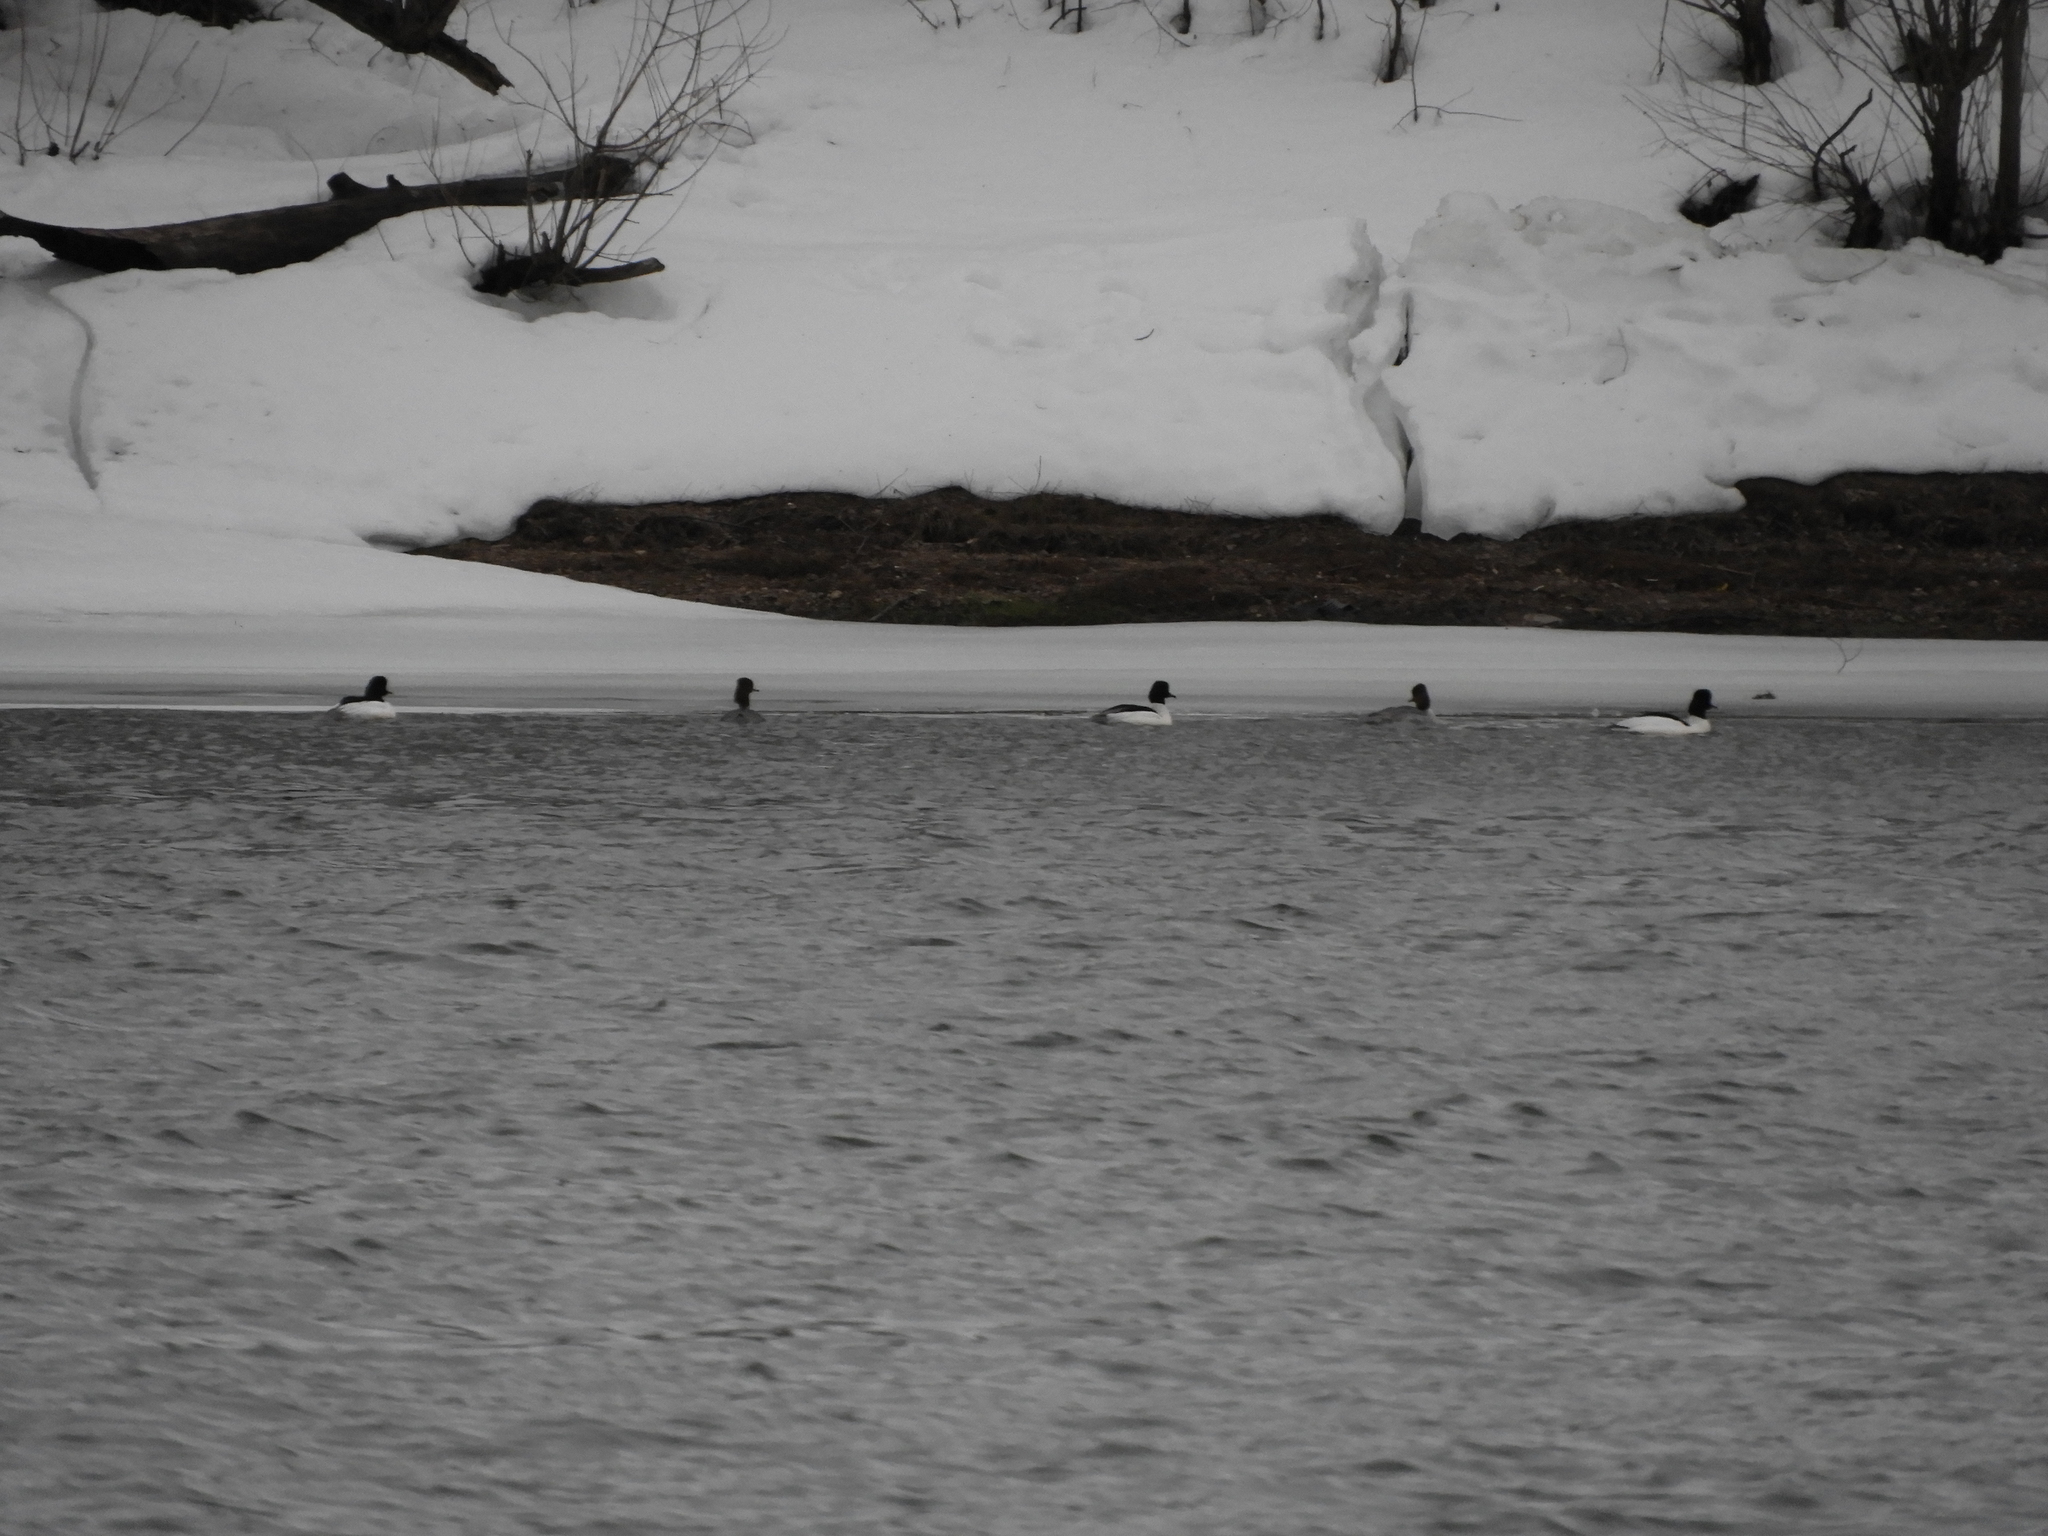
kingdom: Animalia
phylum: Chordata
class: Aves
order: Anseriformes
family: Anatidae
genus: Mergus
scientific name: Mergus merganser
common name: Common merganser
